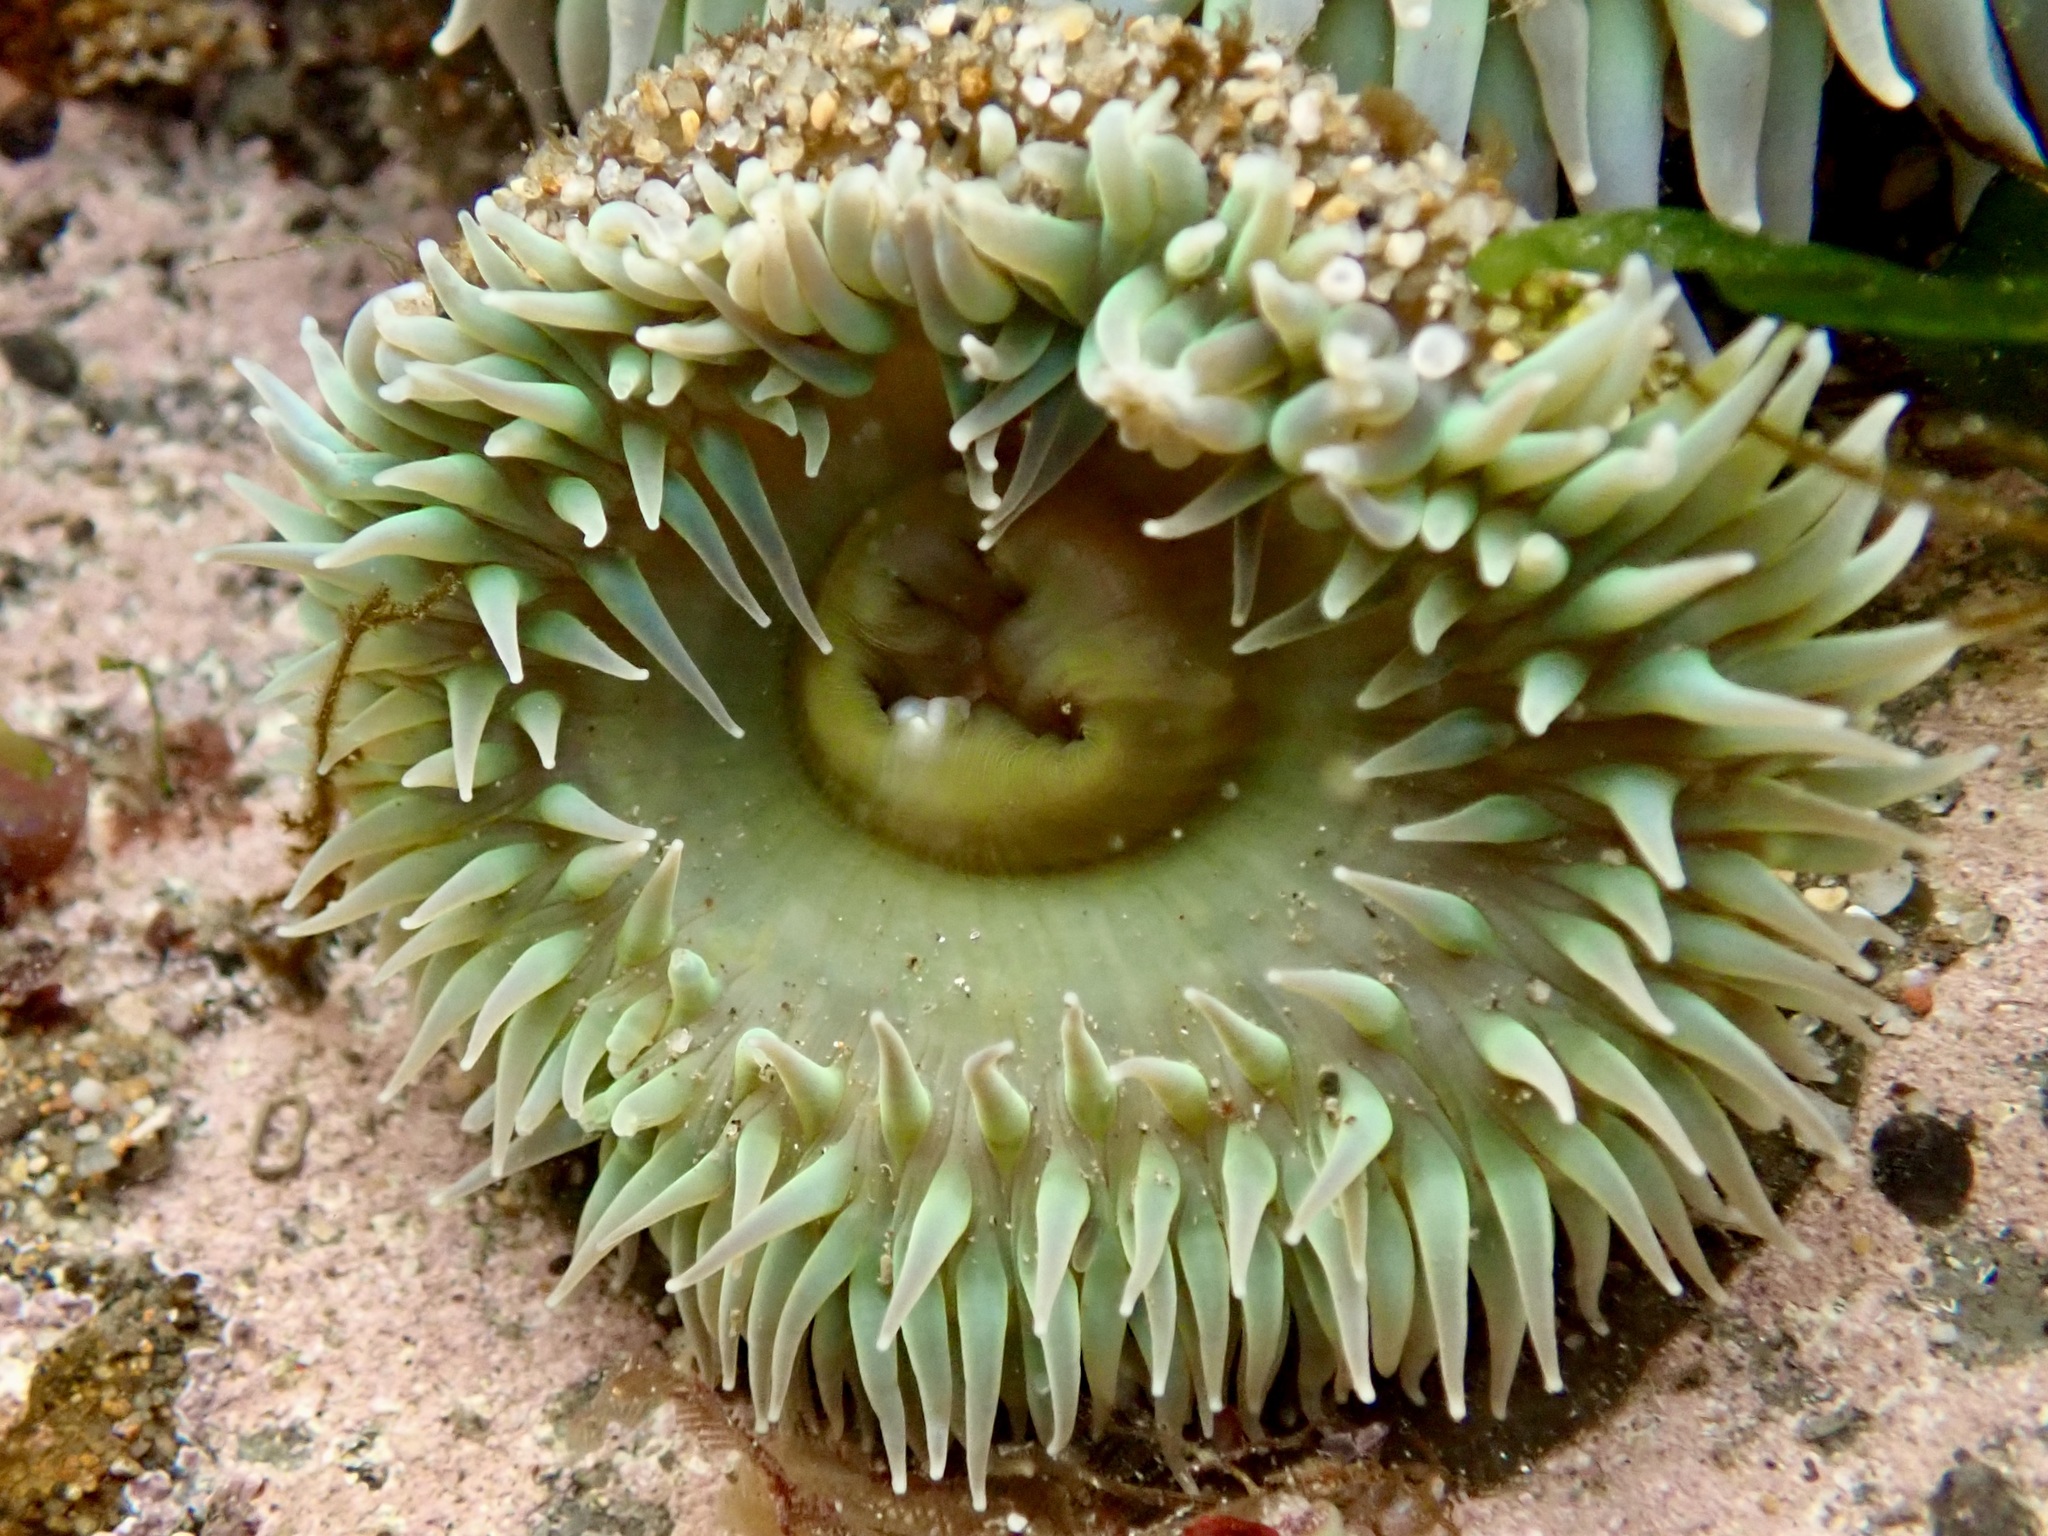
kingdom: Animalia
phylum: Cnidaria
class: Anthozoa
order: Actiniaria
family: Actiniidae
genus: Anthopleura
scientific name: Anthopleura xanthogrammica
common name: Giant green anemone
